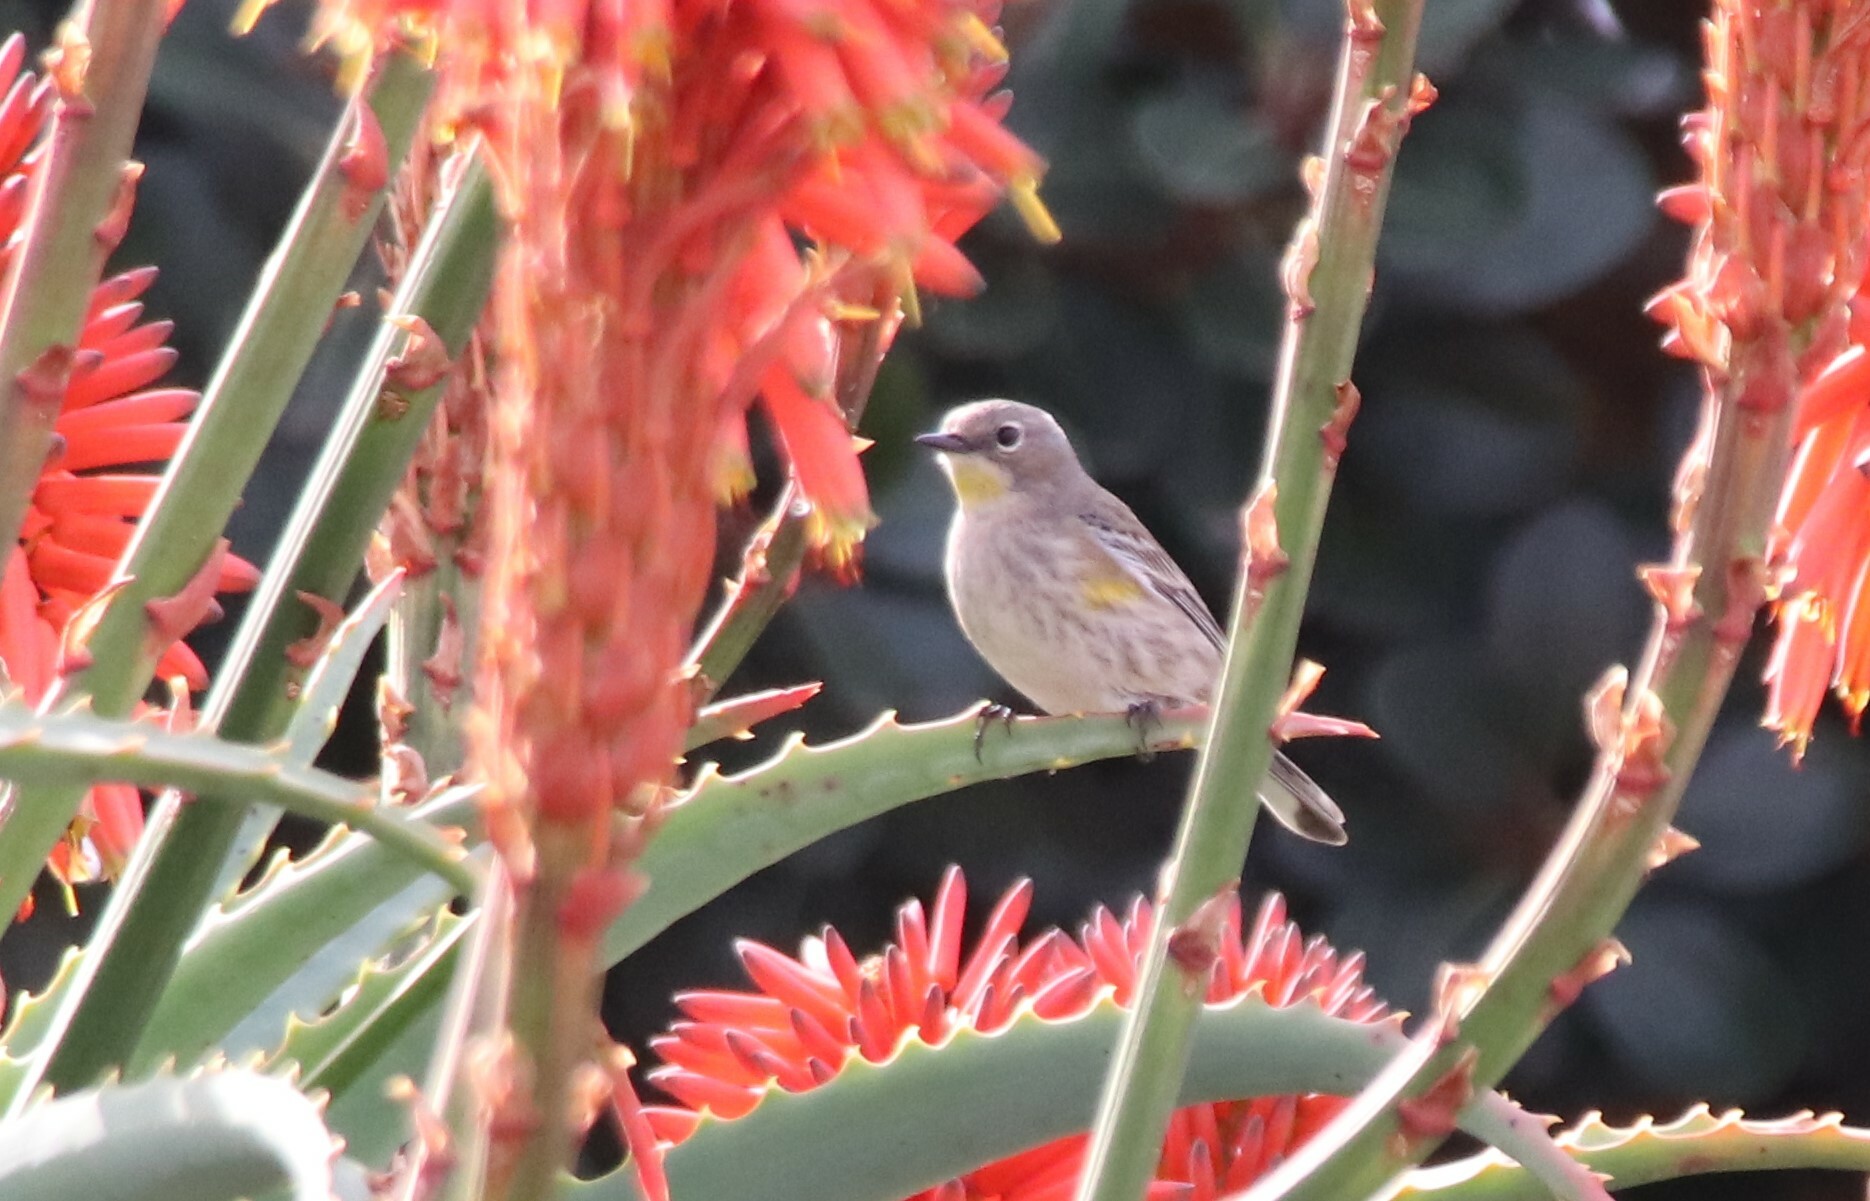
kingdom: Animalia
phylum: Chordata
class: Aves
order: Passeriformes
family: Parulidae
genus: Setophaga
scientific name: Setophaga auduboni
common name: Audubon's warbler
